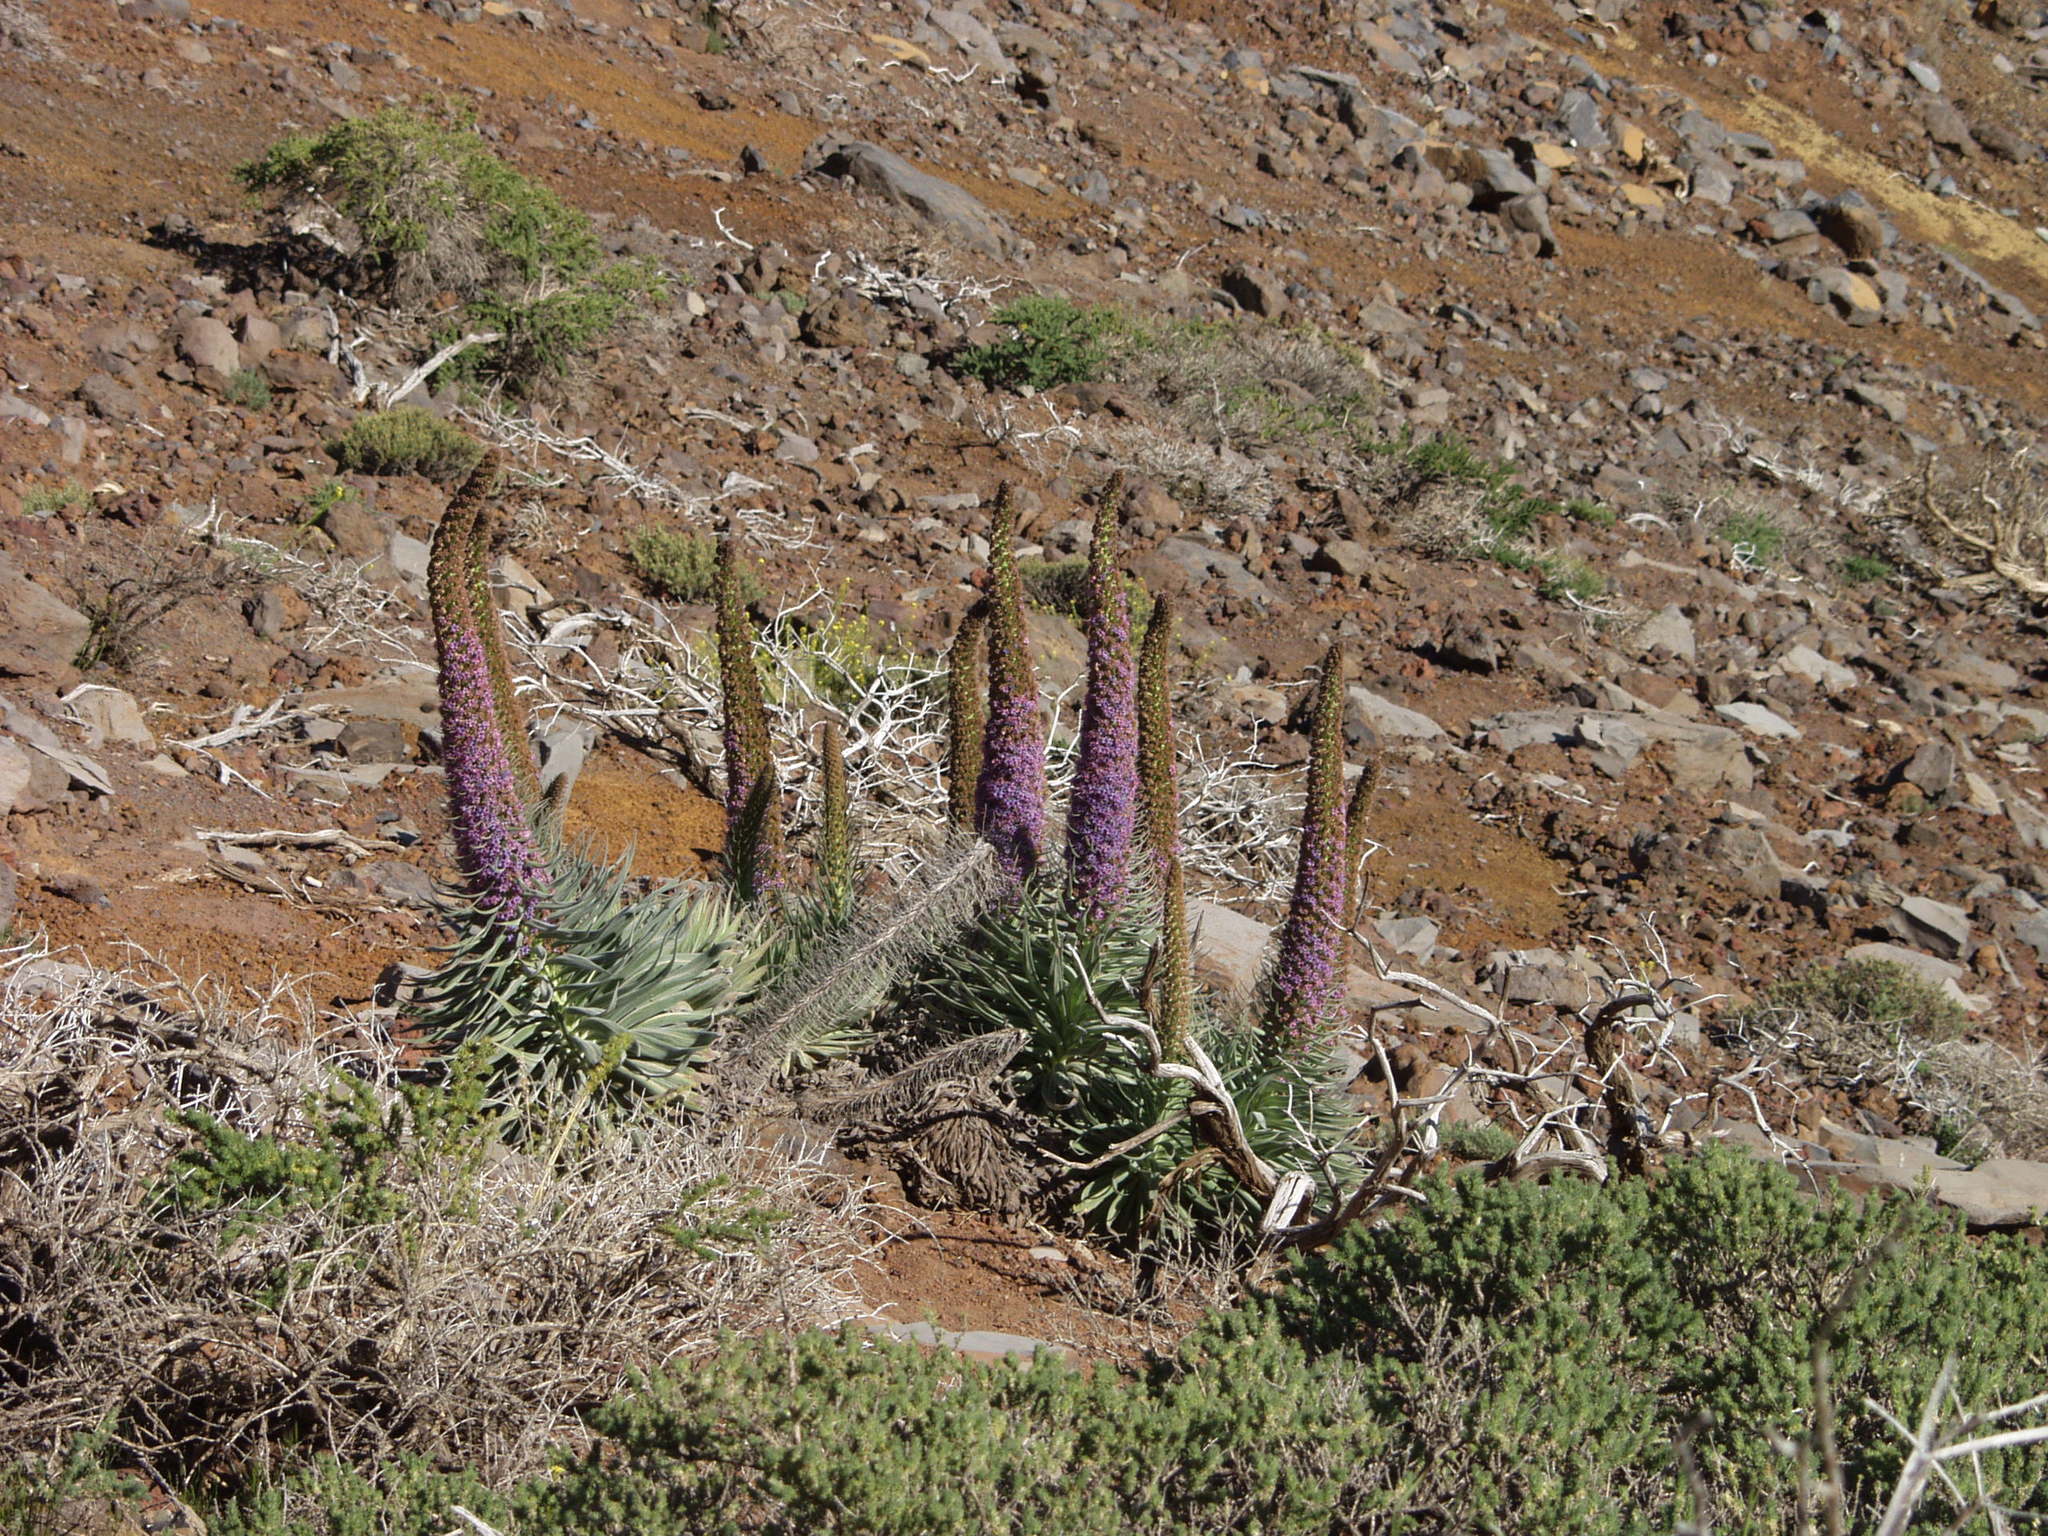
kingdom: Plantae
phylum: Tracheophyta
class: Magnoliopsida
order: Boraginales
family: Boraginaceae
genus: Echium
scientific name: Echium perezii
